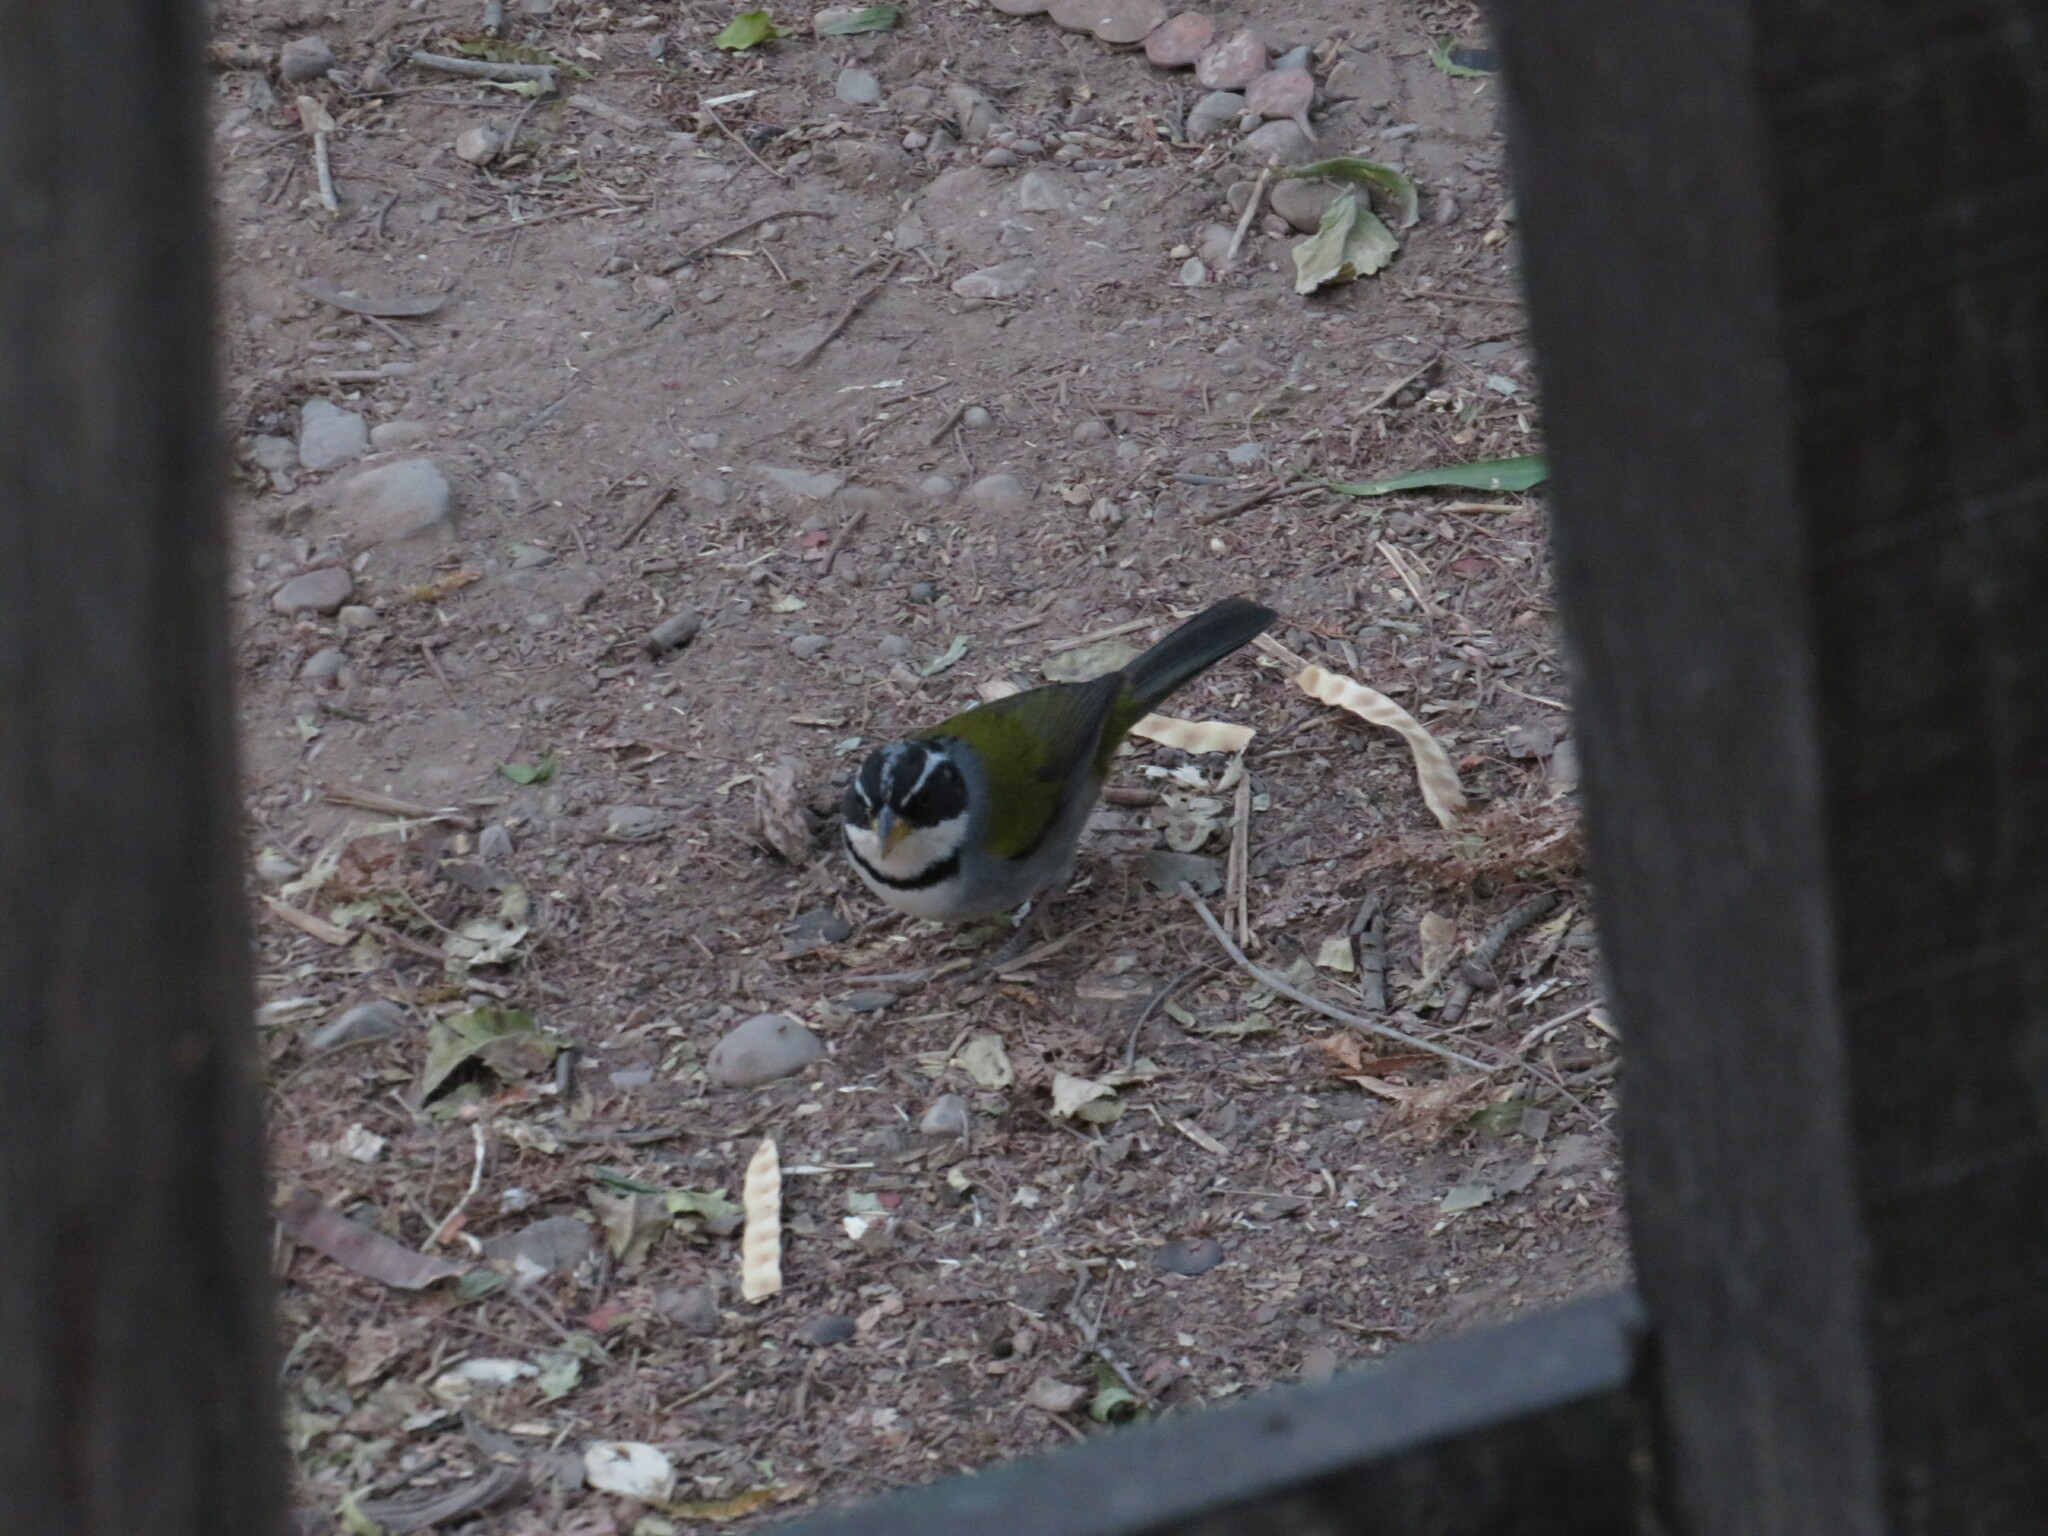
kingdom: Animalia
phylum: Chordata
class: Aves
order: Passeriformes
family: Passerellidae
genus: Arremon
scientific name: Arremon dorbignii
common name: Moss-backed sparrow
